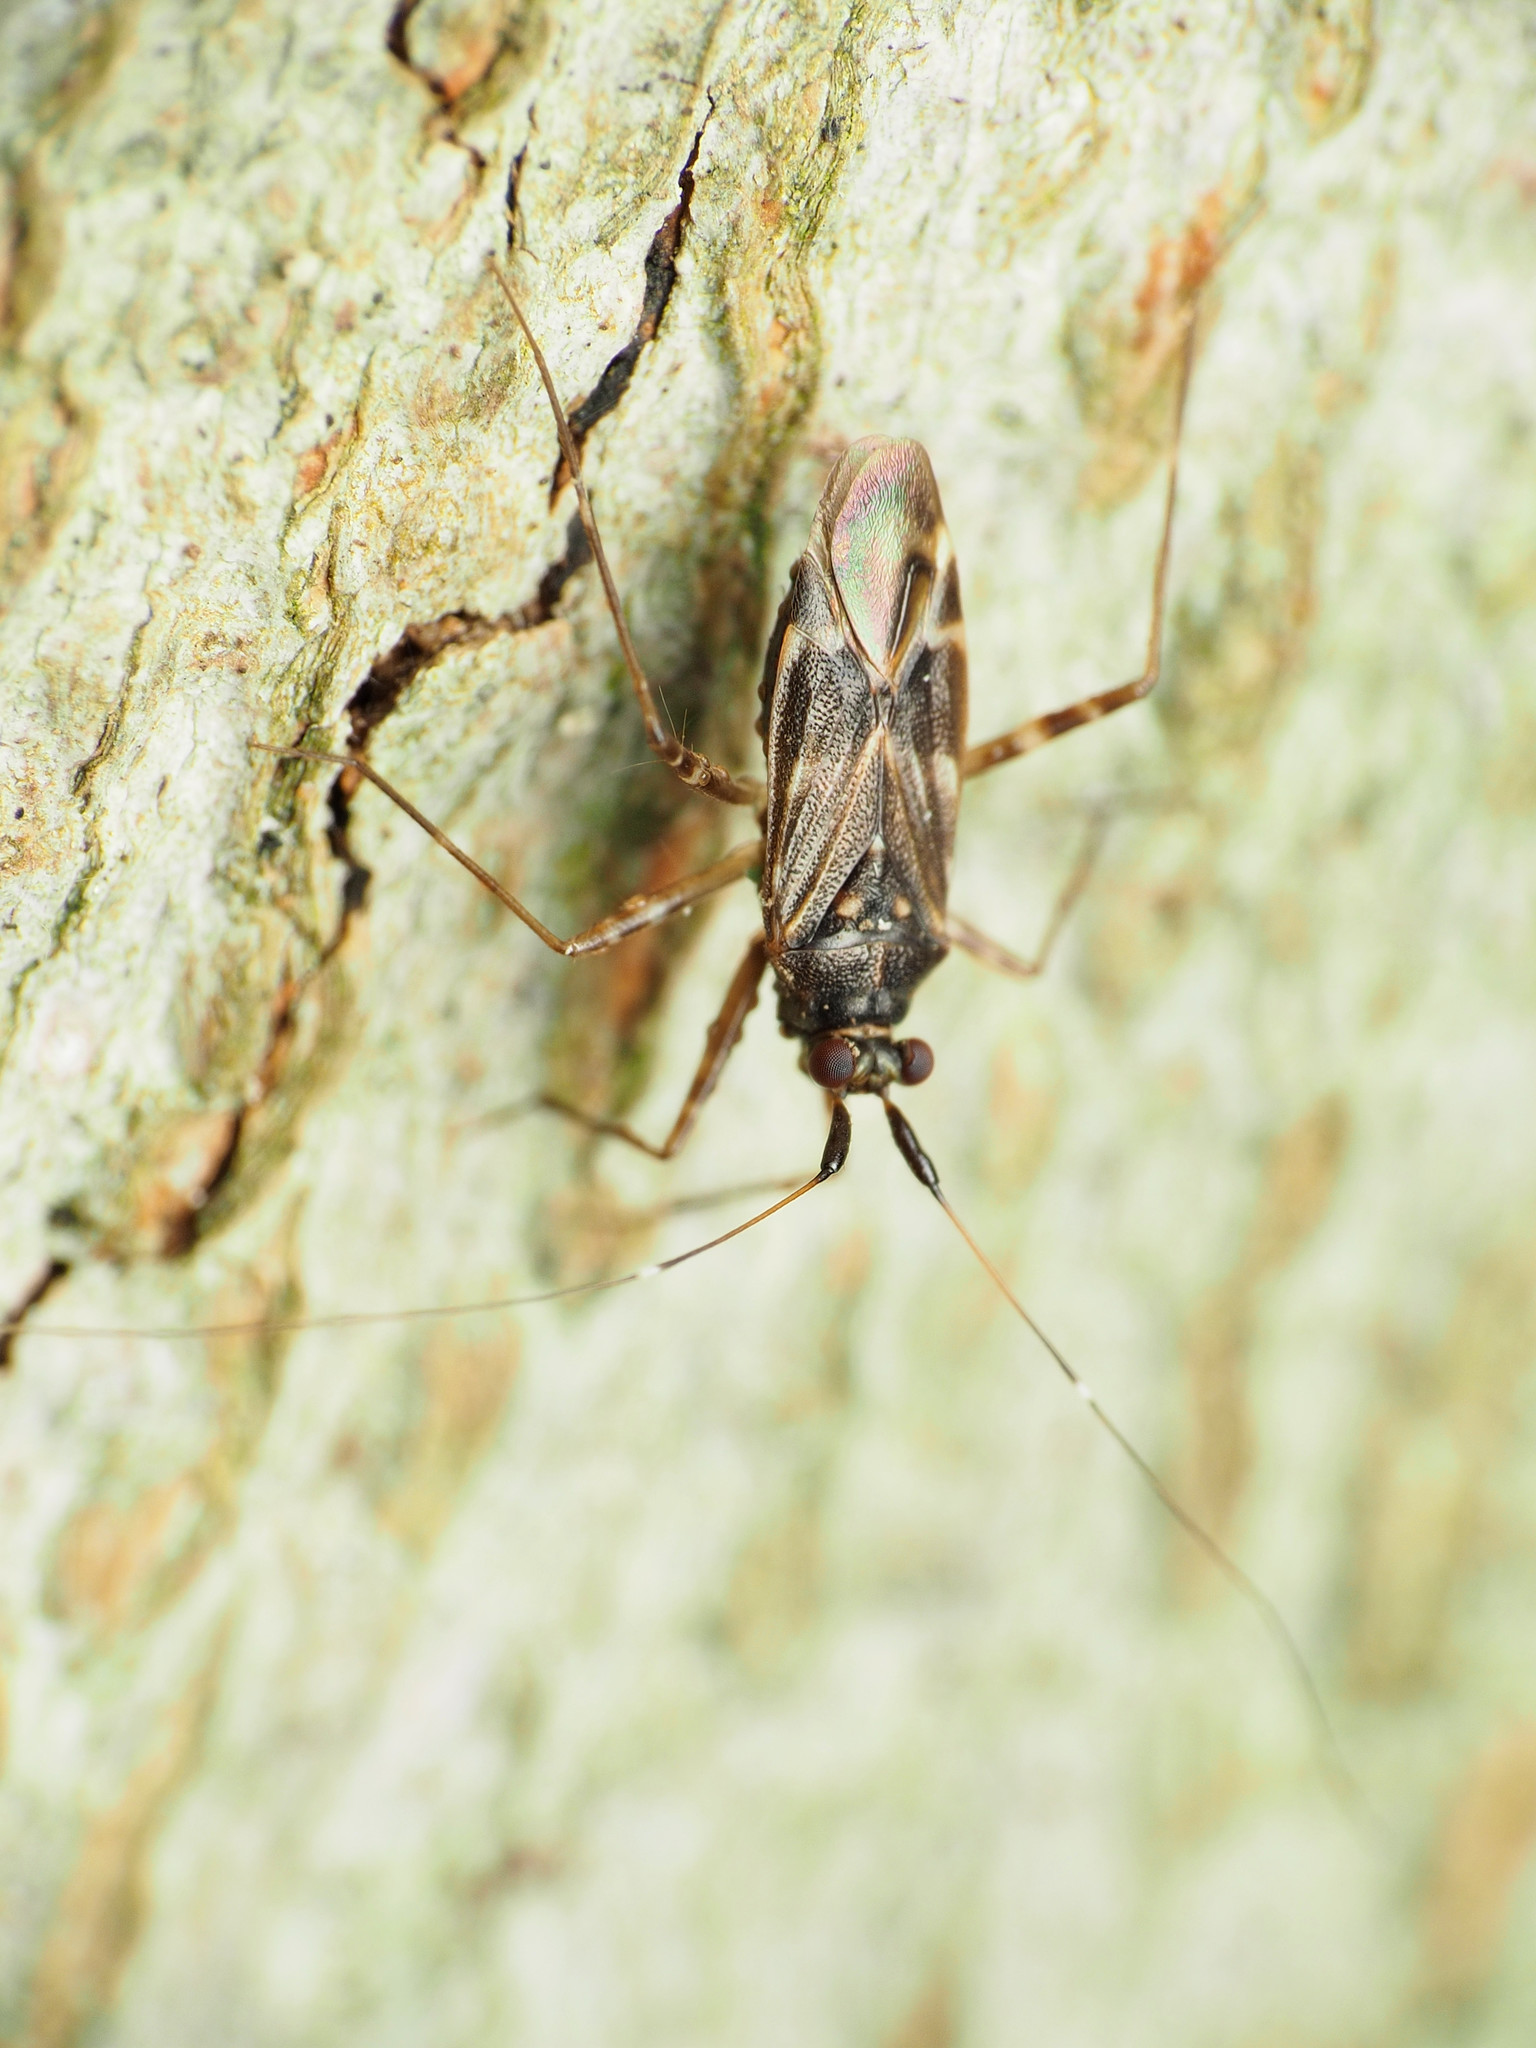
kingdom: Animalia
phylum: Arthropoda
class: Insecta
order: Hemiptera
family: Miridae
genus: Cylapus
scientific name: Cylapus tenuicornis
